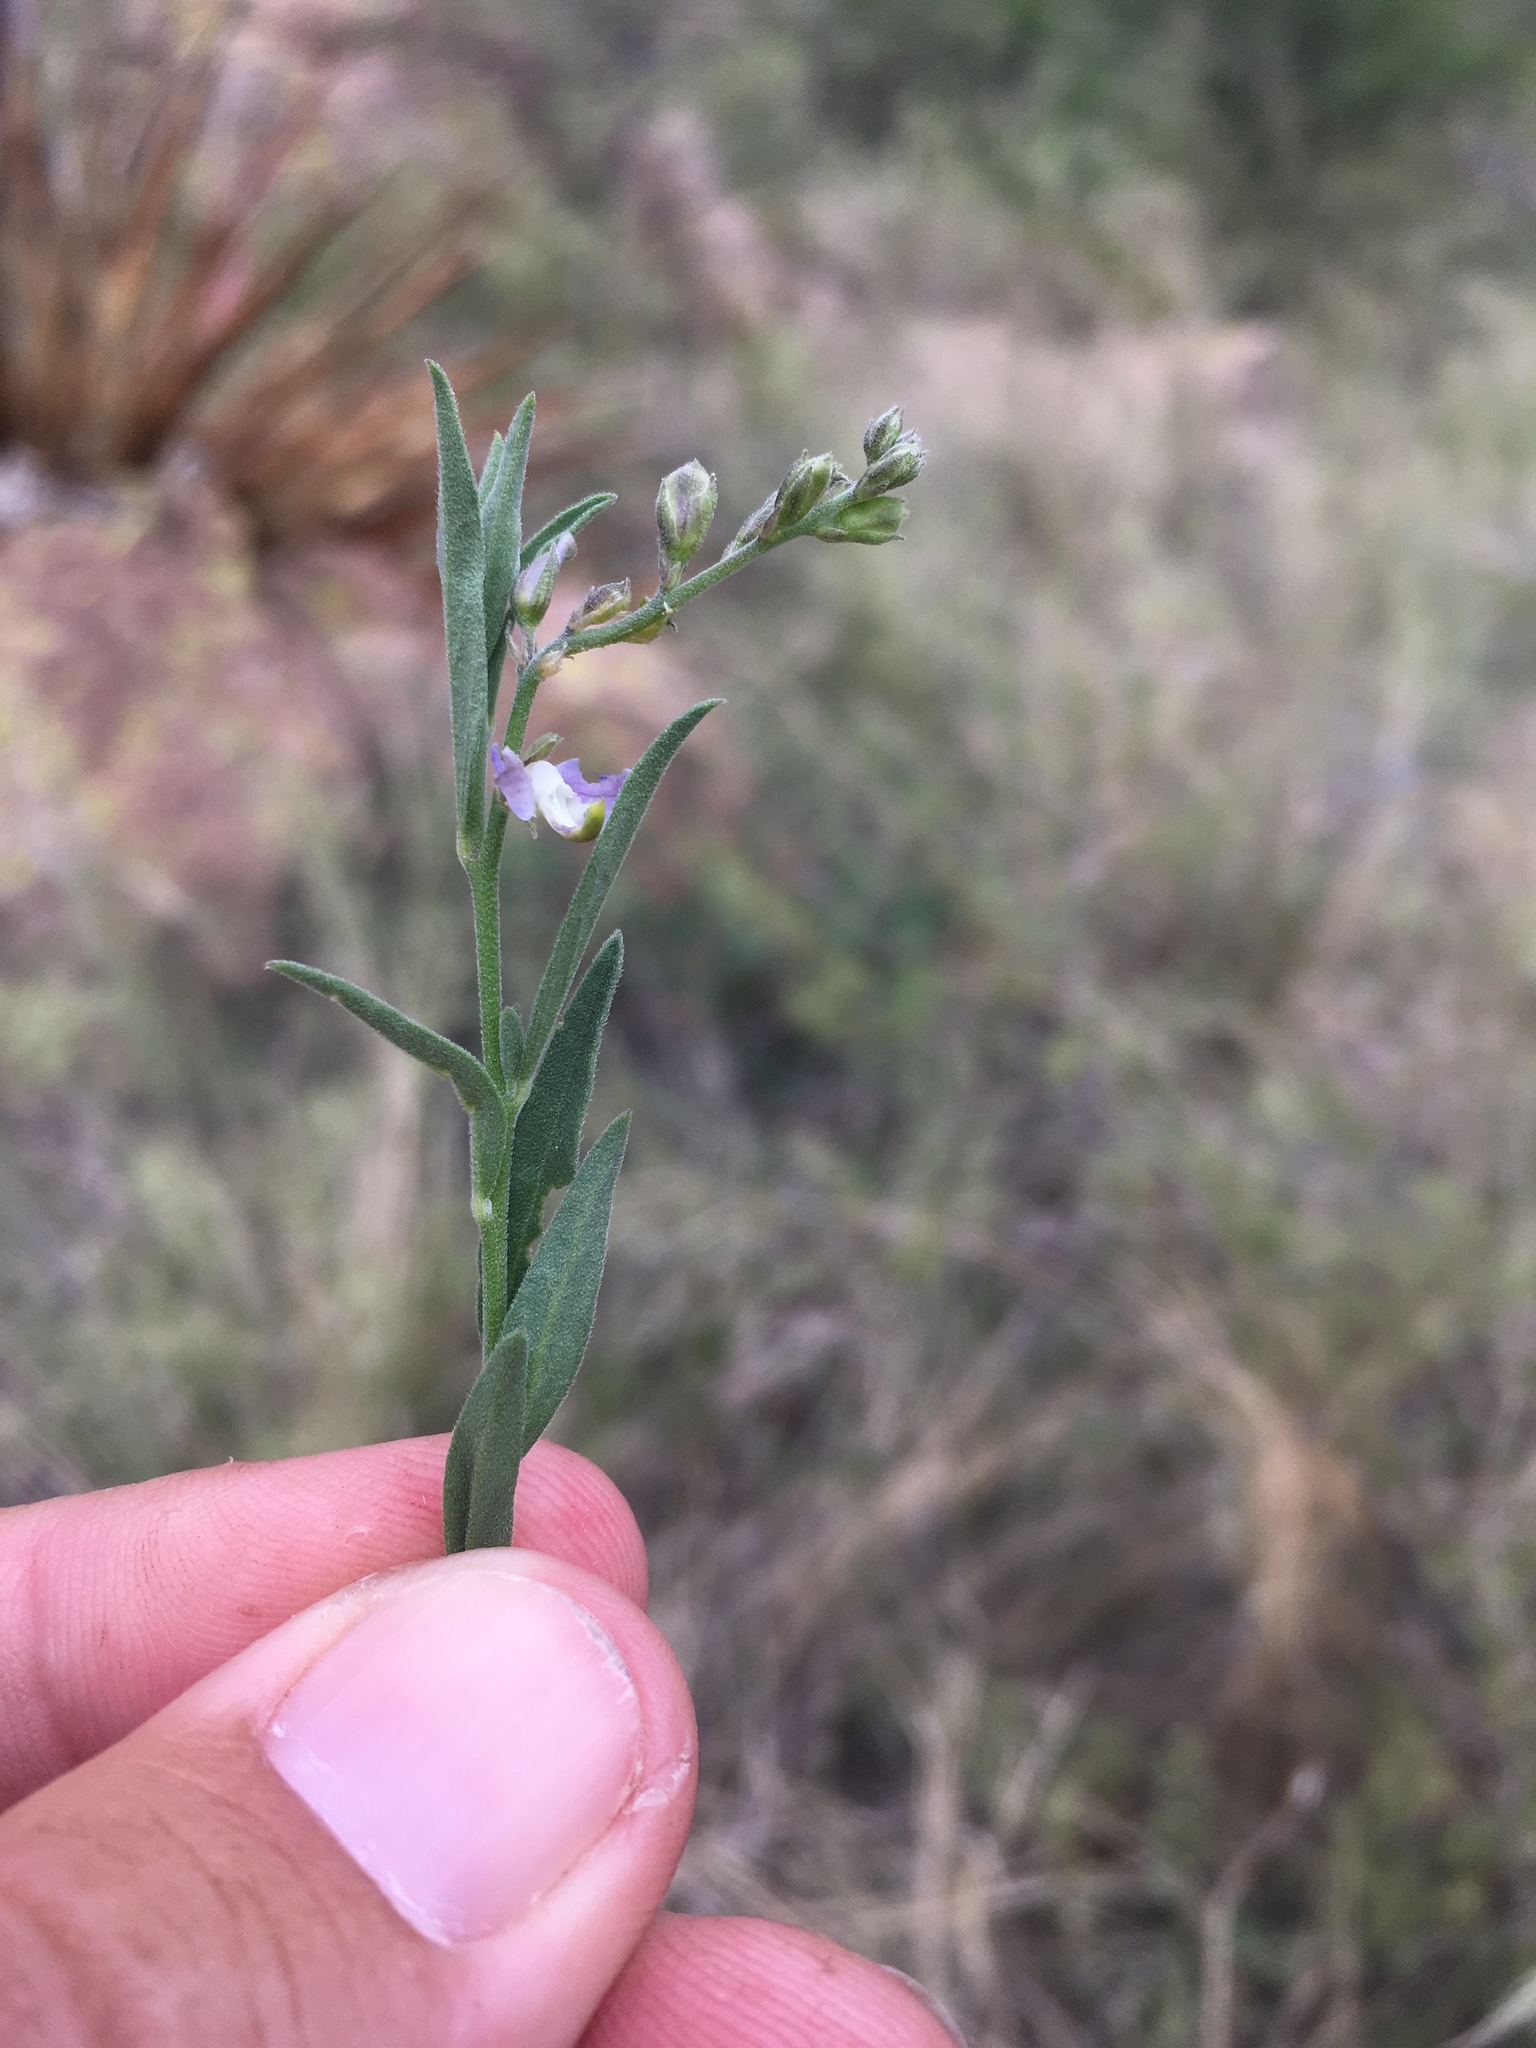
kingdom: Plantae
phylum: Tracheophyta
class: Magnoliopsida
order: Fabales
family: Polygalaceae
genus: Hebecarpa
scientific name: Hebecarpa barbeyana
